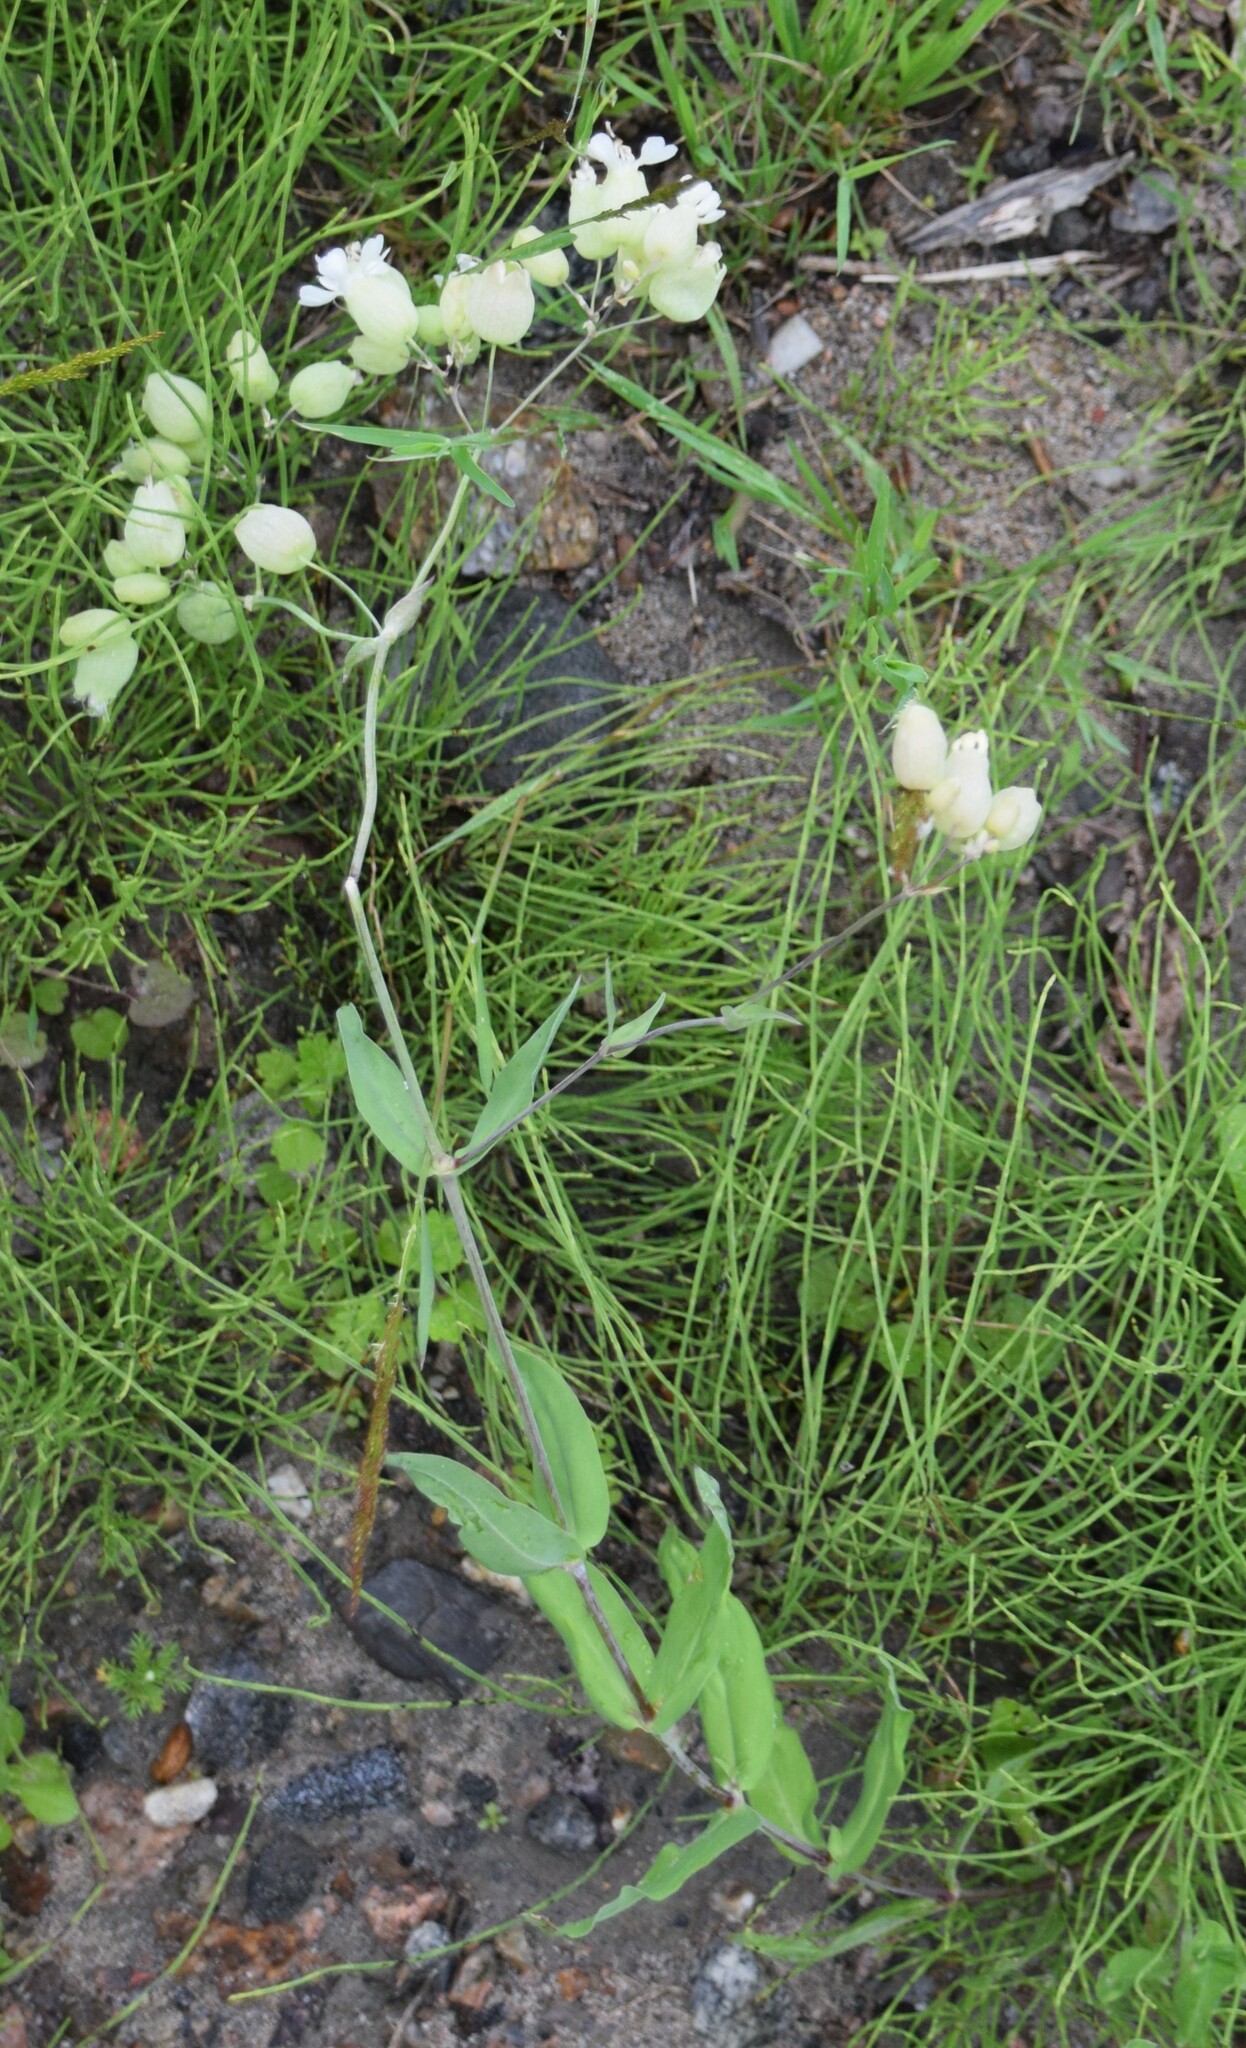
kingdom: Plantae
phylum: Tracheophyta
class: Magnoliopsida
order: Caryophyllales
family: Caryophyllaceae
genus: Silene
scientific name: Silene vulgaris
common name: Bladder campion
